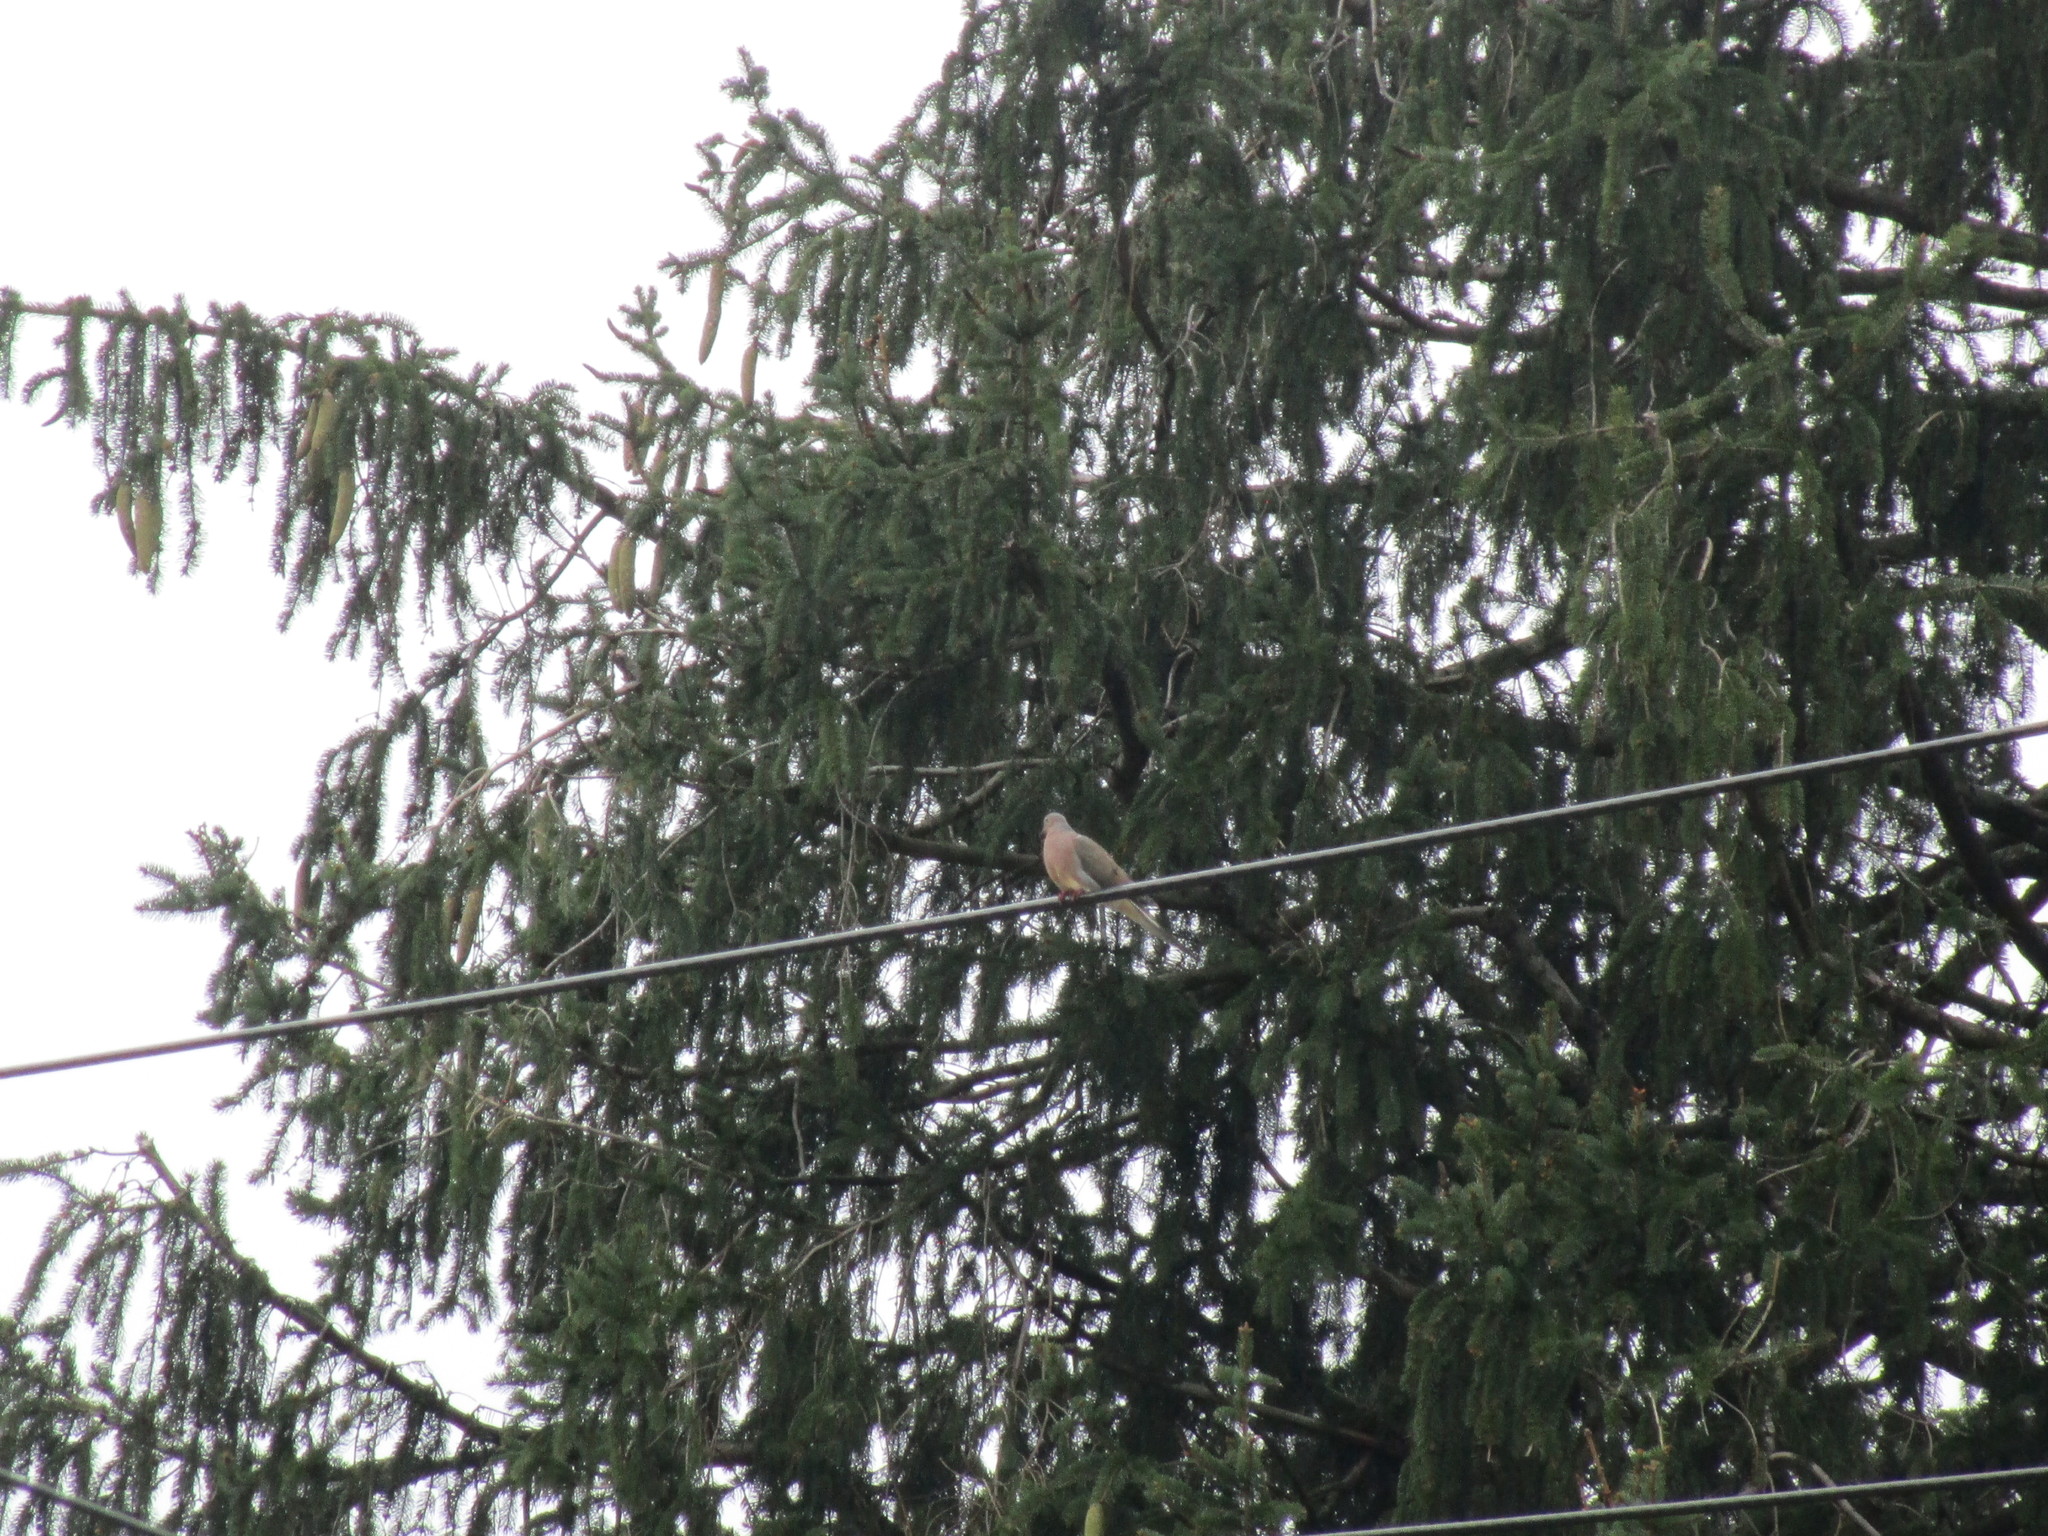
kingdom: Animalia
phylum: Chordata
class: Aves
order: Columbiformes
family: Columbidae
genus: Zenaida
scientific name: Zenaida macroura
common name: Mourning dove
